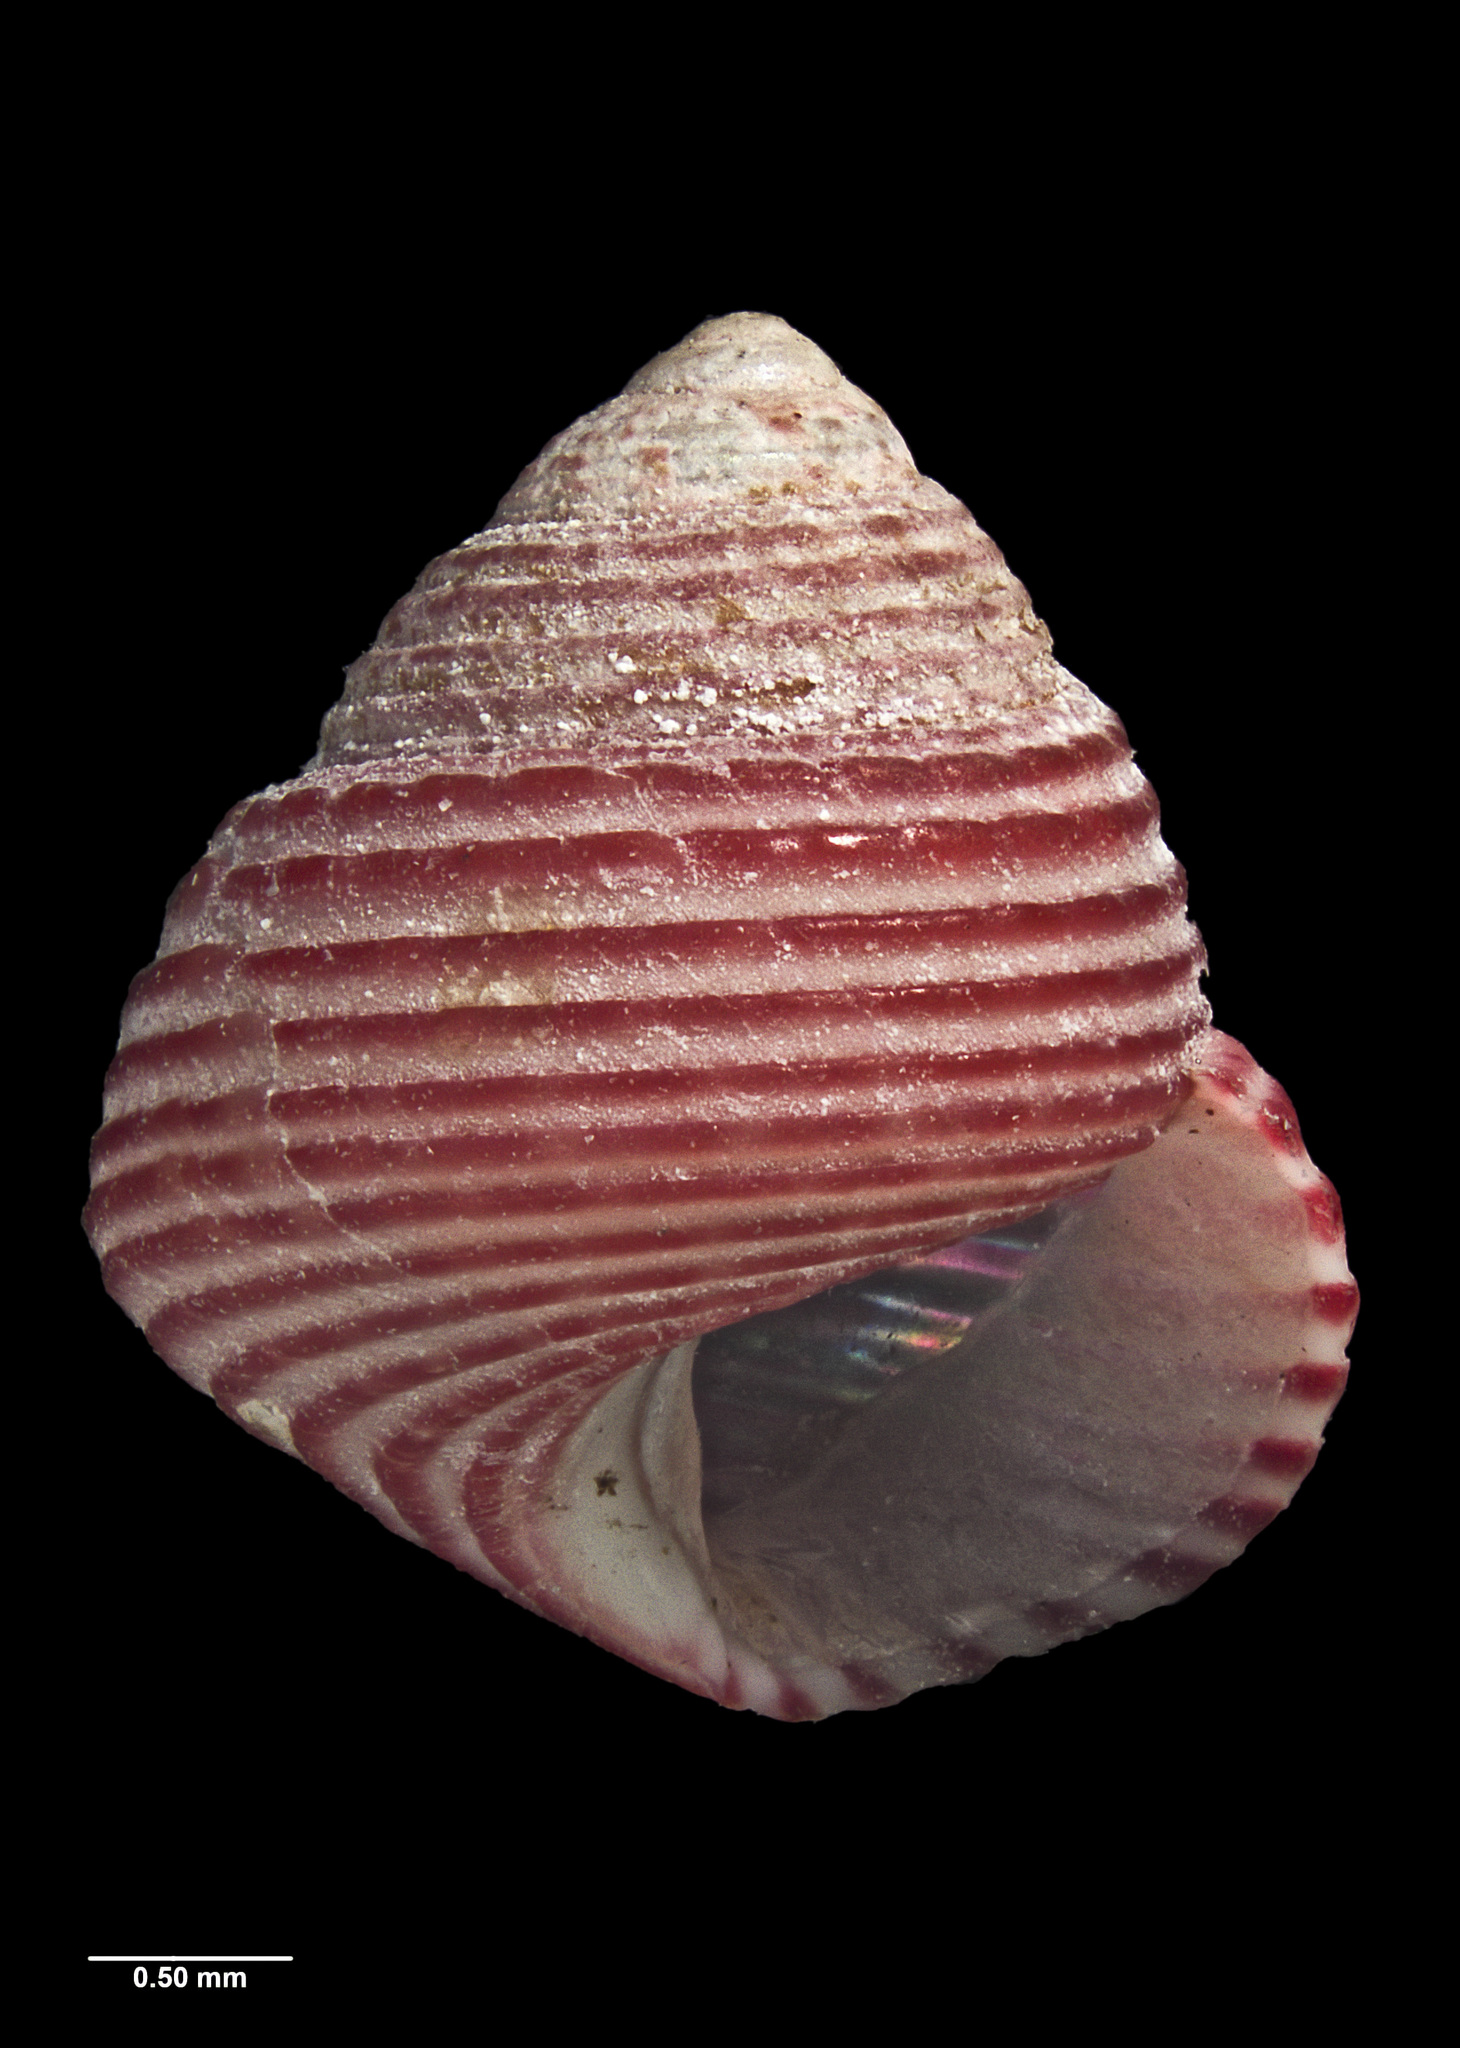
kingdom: Animalia
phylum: Mollusca
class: Gastropoda
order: Trochida
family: Trochidae
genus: Roseaplagis
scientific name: Roseaplagis mortenseni
